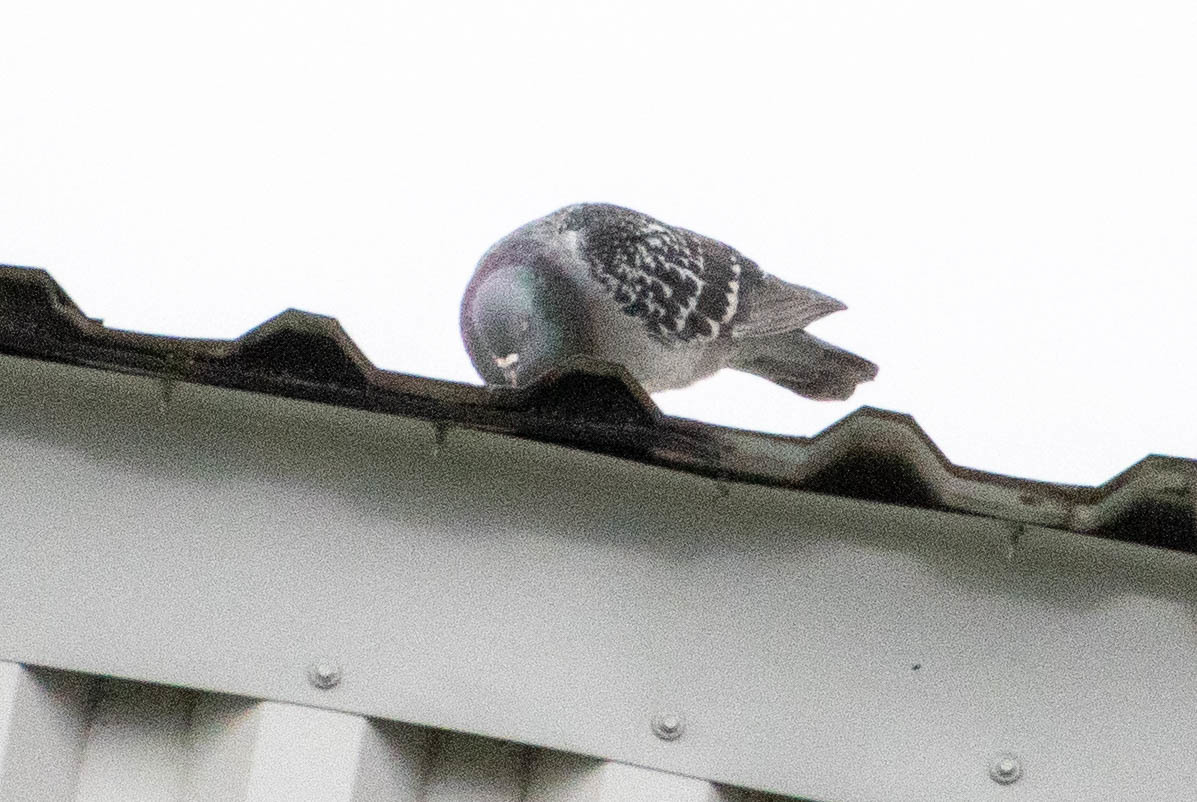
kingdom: Animalia
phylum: Chordata
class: Aves
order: Columbiformes
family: Columbidae
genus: Columba
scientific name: Columba livia
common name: Rock pigeon
